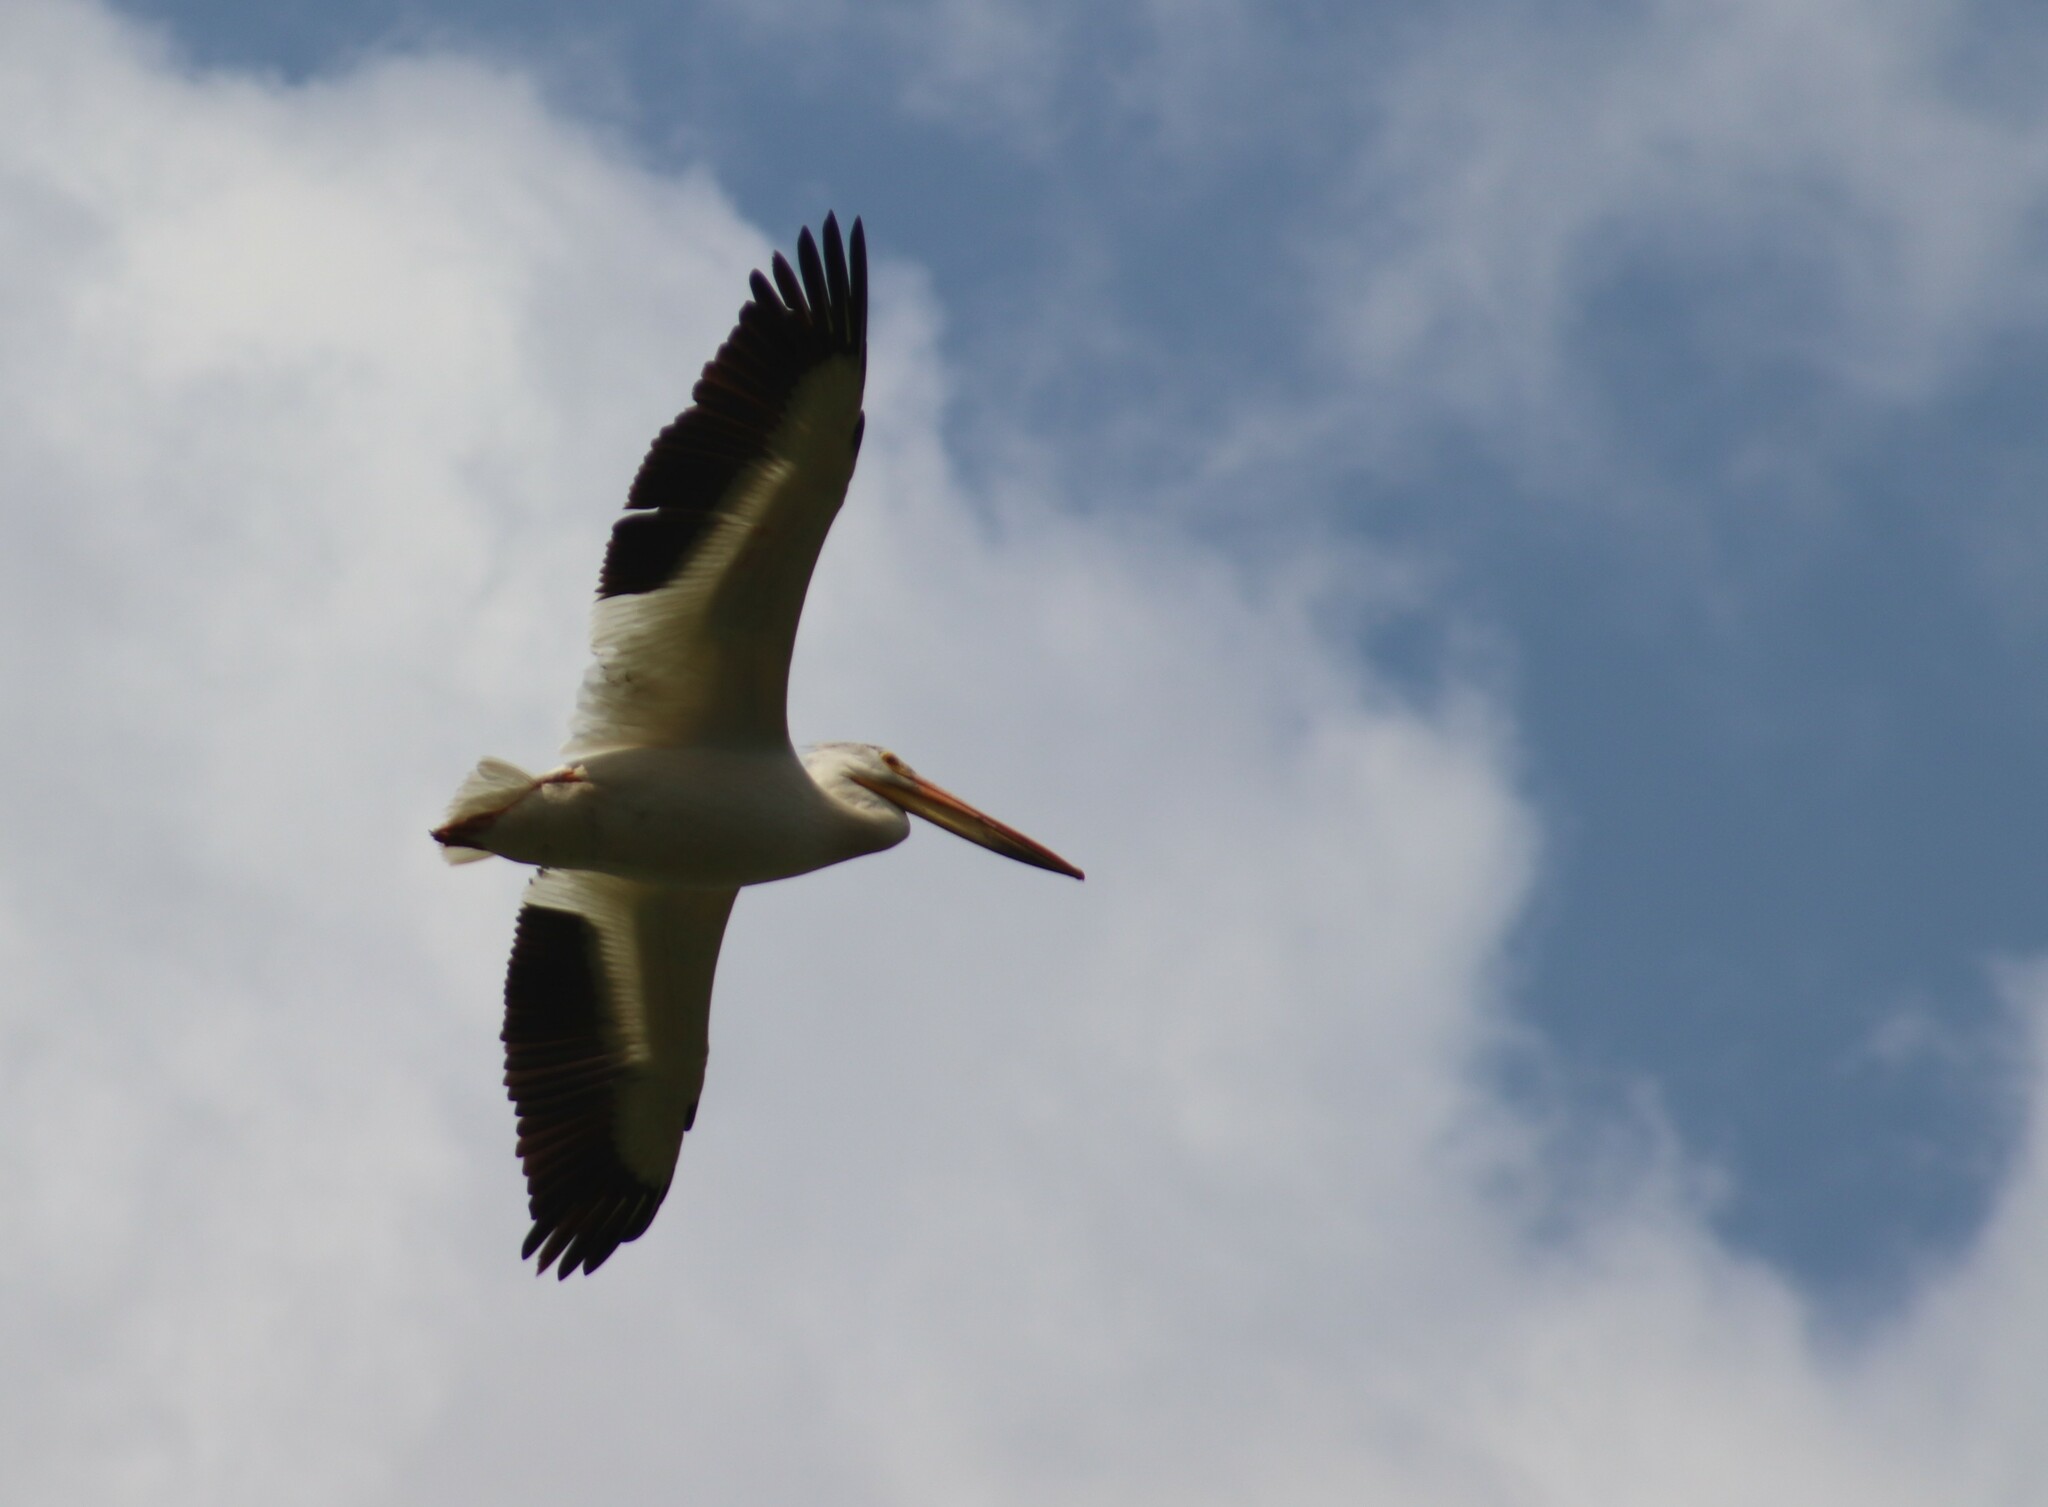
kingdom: Animalia
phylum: Chordata
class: Aves
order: Pelecaniformes
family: Pelecanidae
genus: Pelecanus
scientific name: Pelecanus erythrorhynchos
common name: American white pelican
